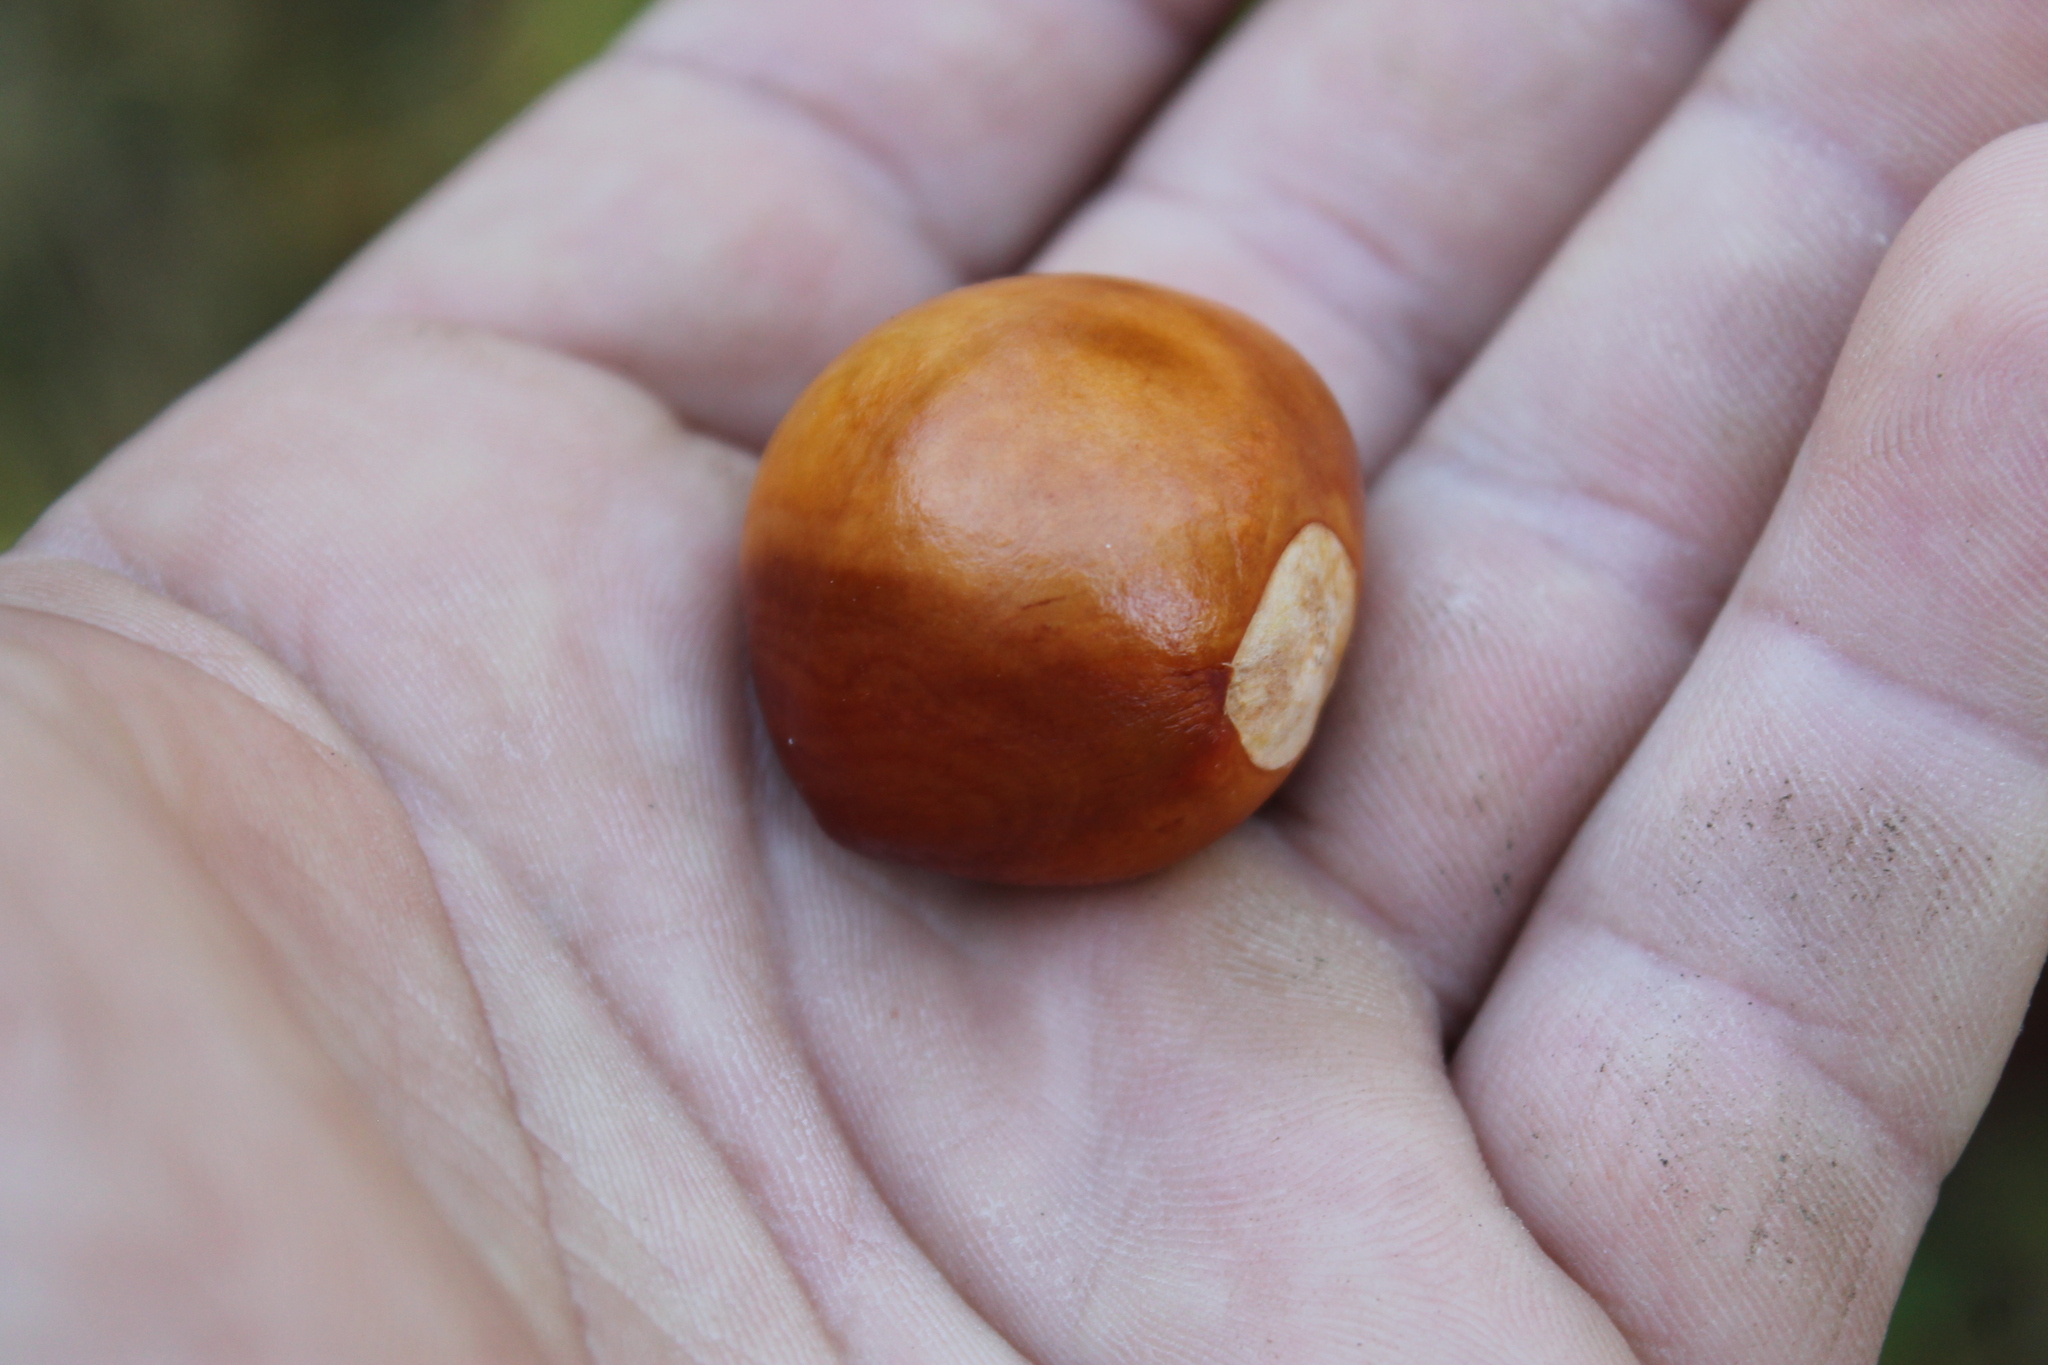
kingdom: Plantae
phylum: Tracheophyta
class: Magnoliopsida
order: Sapindales
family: Sapindaceae
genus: Aesculus
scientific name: Aesculus pavia
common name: Red buckeye
